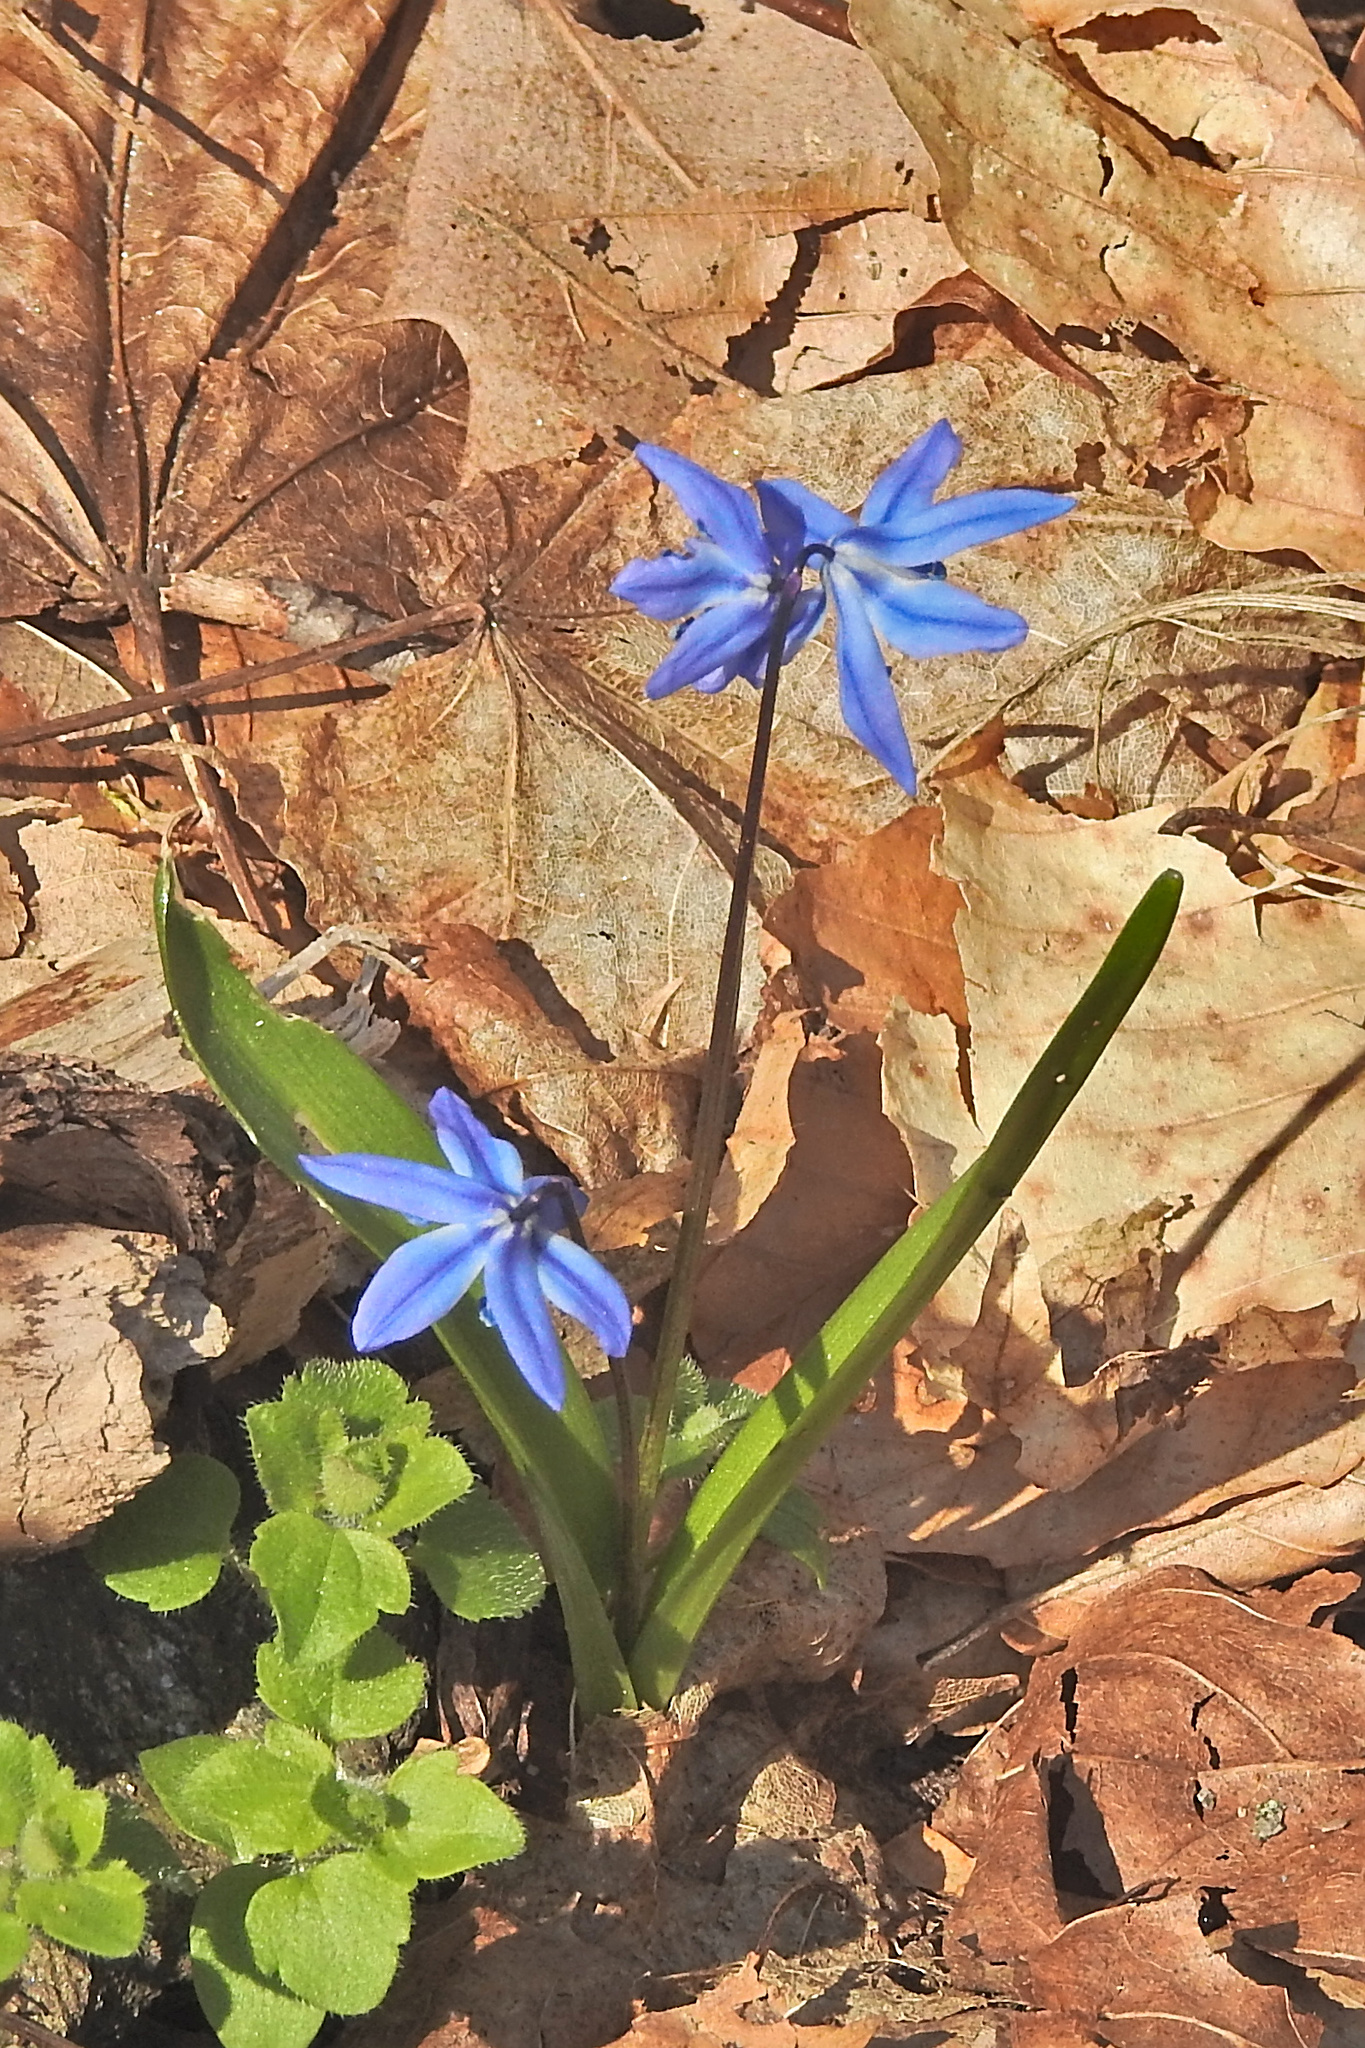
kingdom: Plantae
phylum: Tracheophyta
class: Liliopsida
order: Asparagales
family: Asparagaceae
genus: Scilla
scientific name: Scilla siberica
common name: Siberian squill
